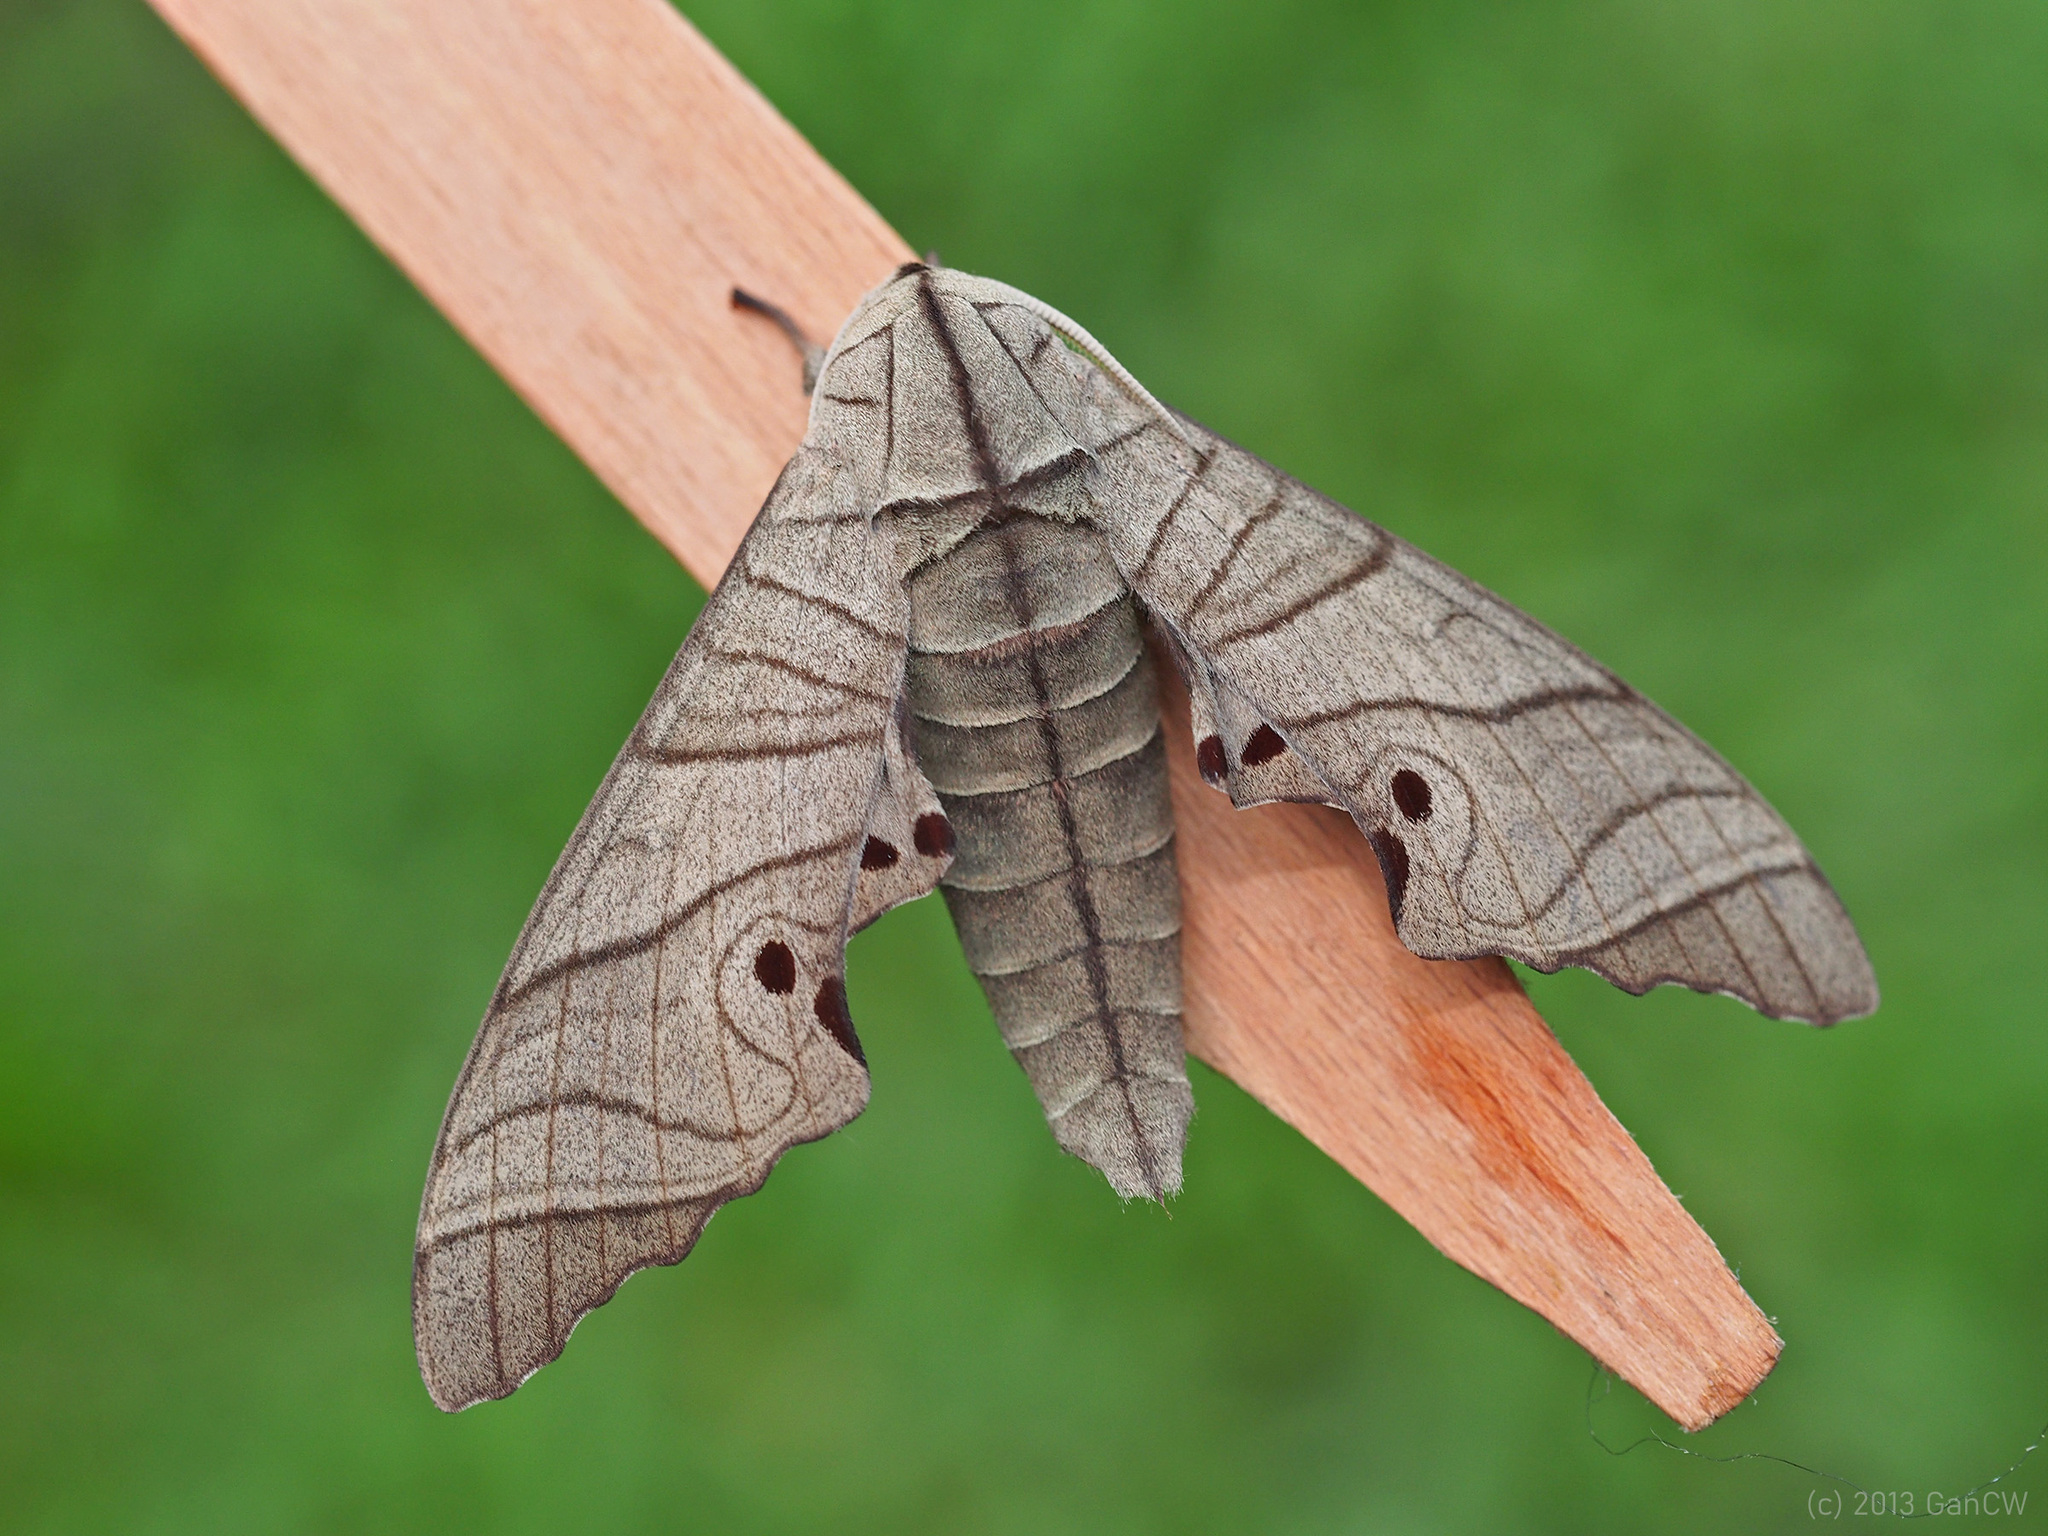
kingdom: Animalia
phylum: Arthropoda
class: Insecta
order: Lepidoptera
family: Sphingidae
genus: Marumba
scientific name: Marumba juvencus
